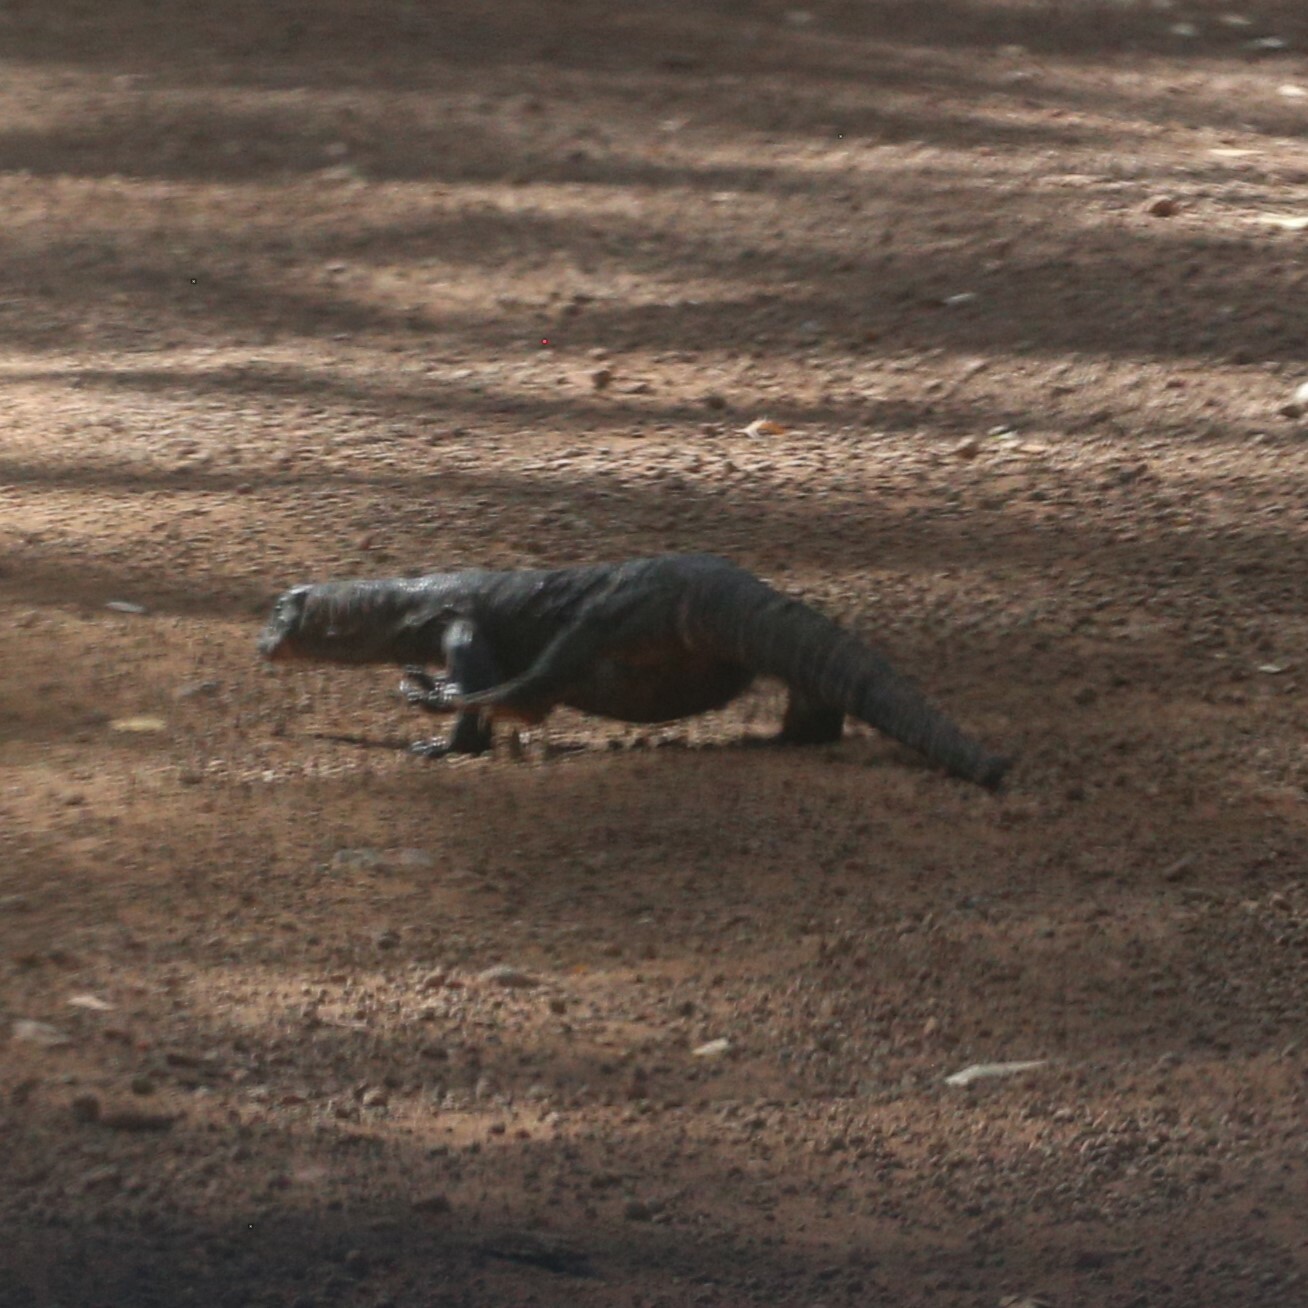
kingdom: Animalia
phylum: Chordata
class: Squamata
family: Varanidae
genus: Varanus
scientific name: Varanus rosenbergi
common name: Heath monitor
